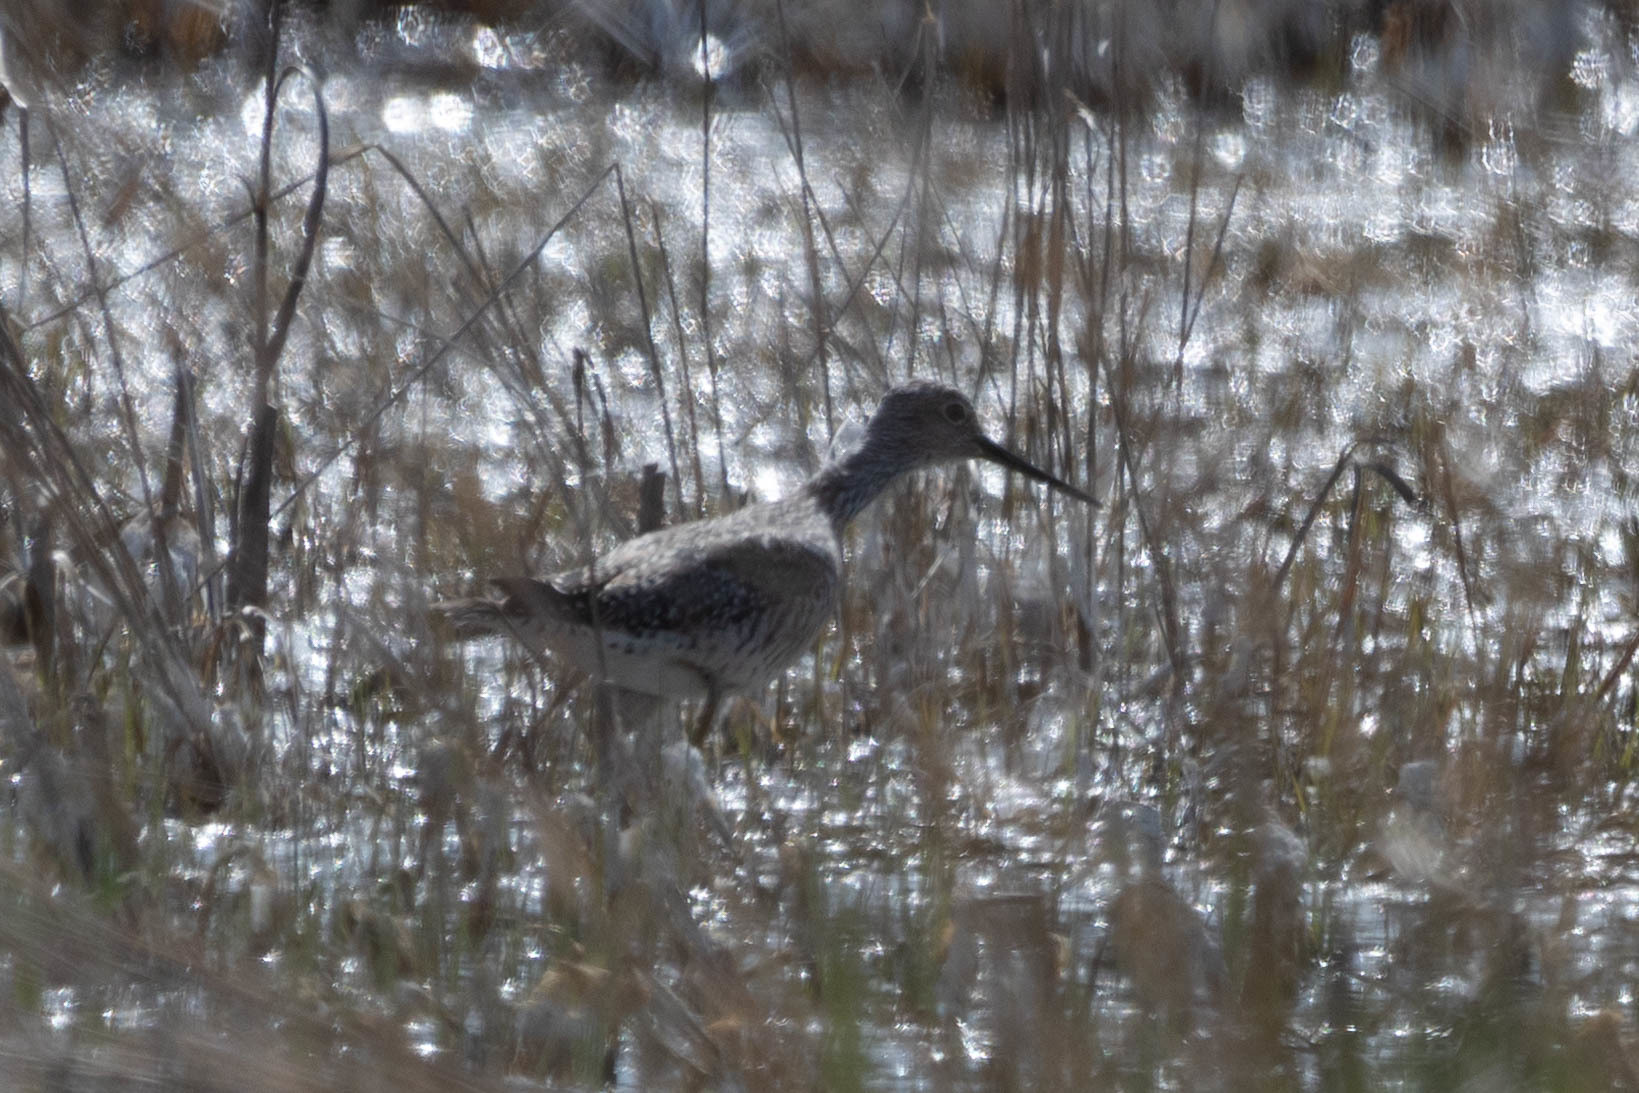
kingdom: Animalia
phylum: Chordata
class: Aves
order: Charadriiformes
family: Scolopacidae
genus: Tringa
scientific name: Tringa melanoleuca
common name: Greater yellowlegs
